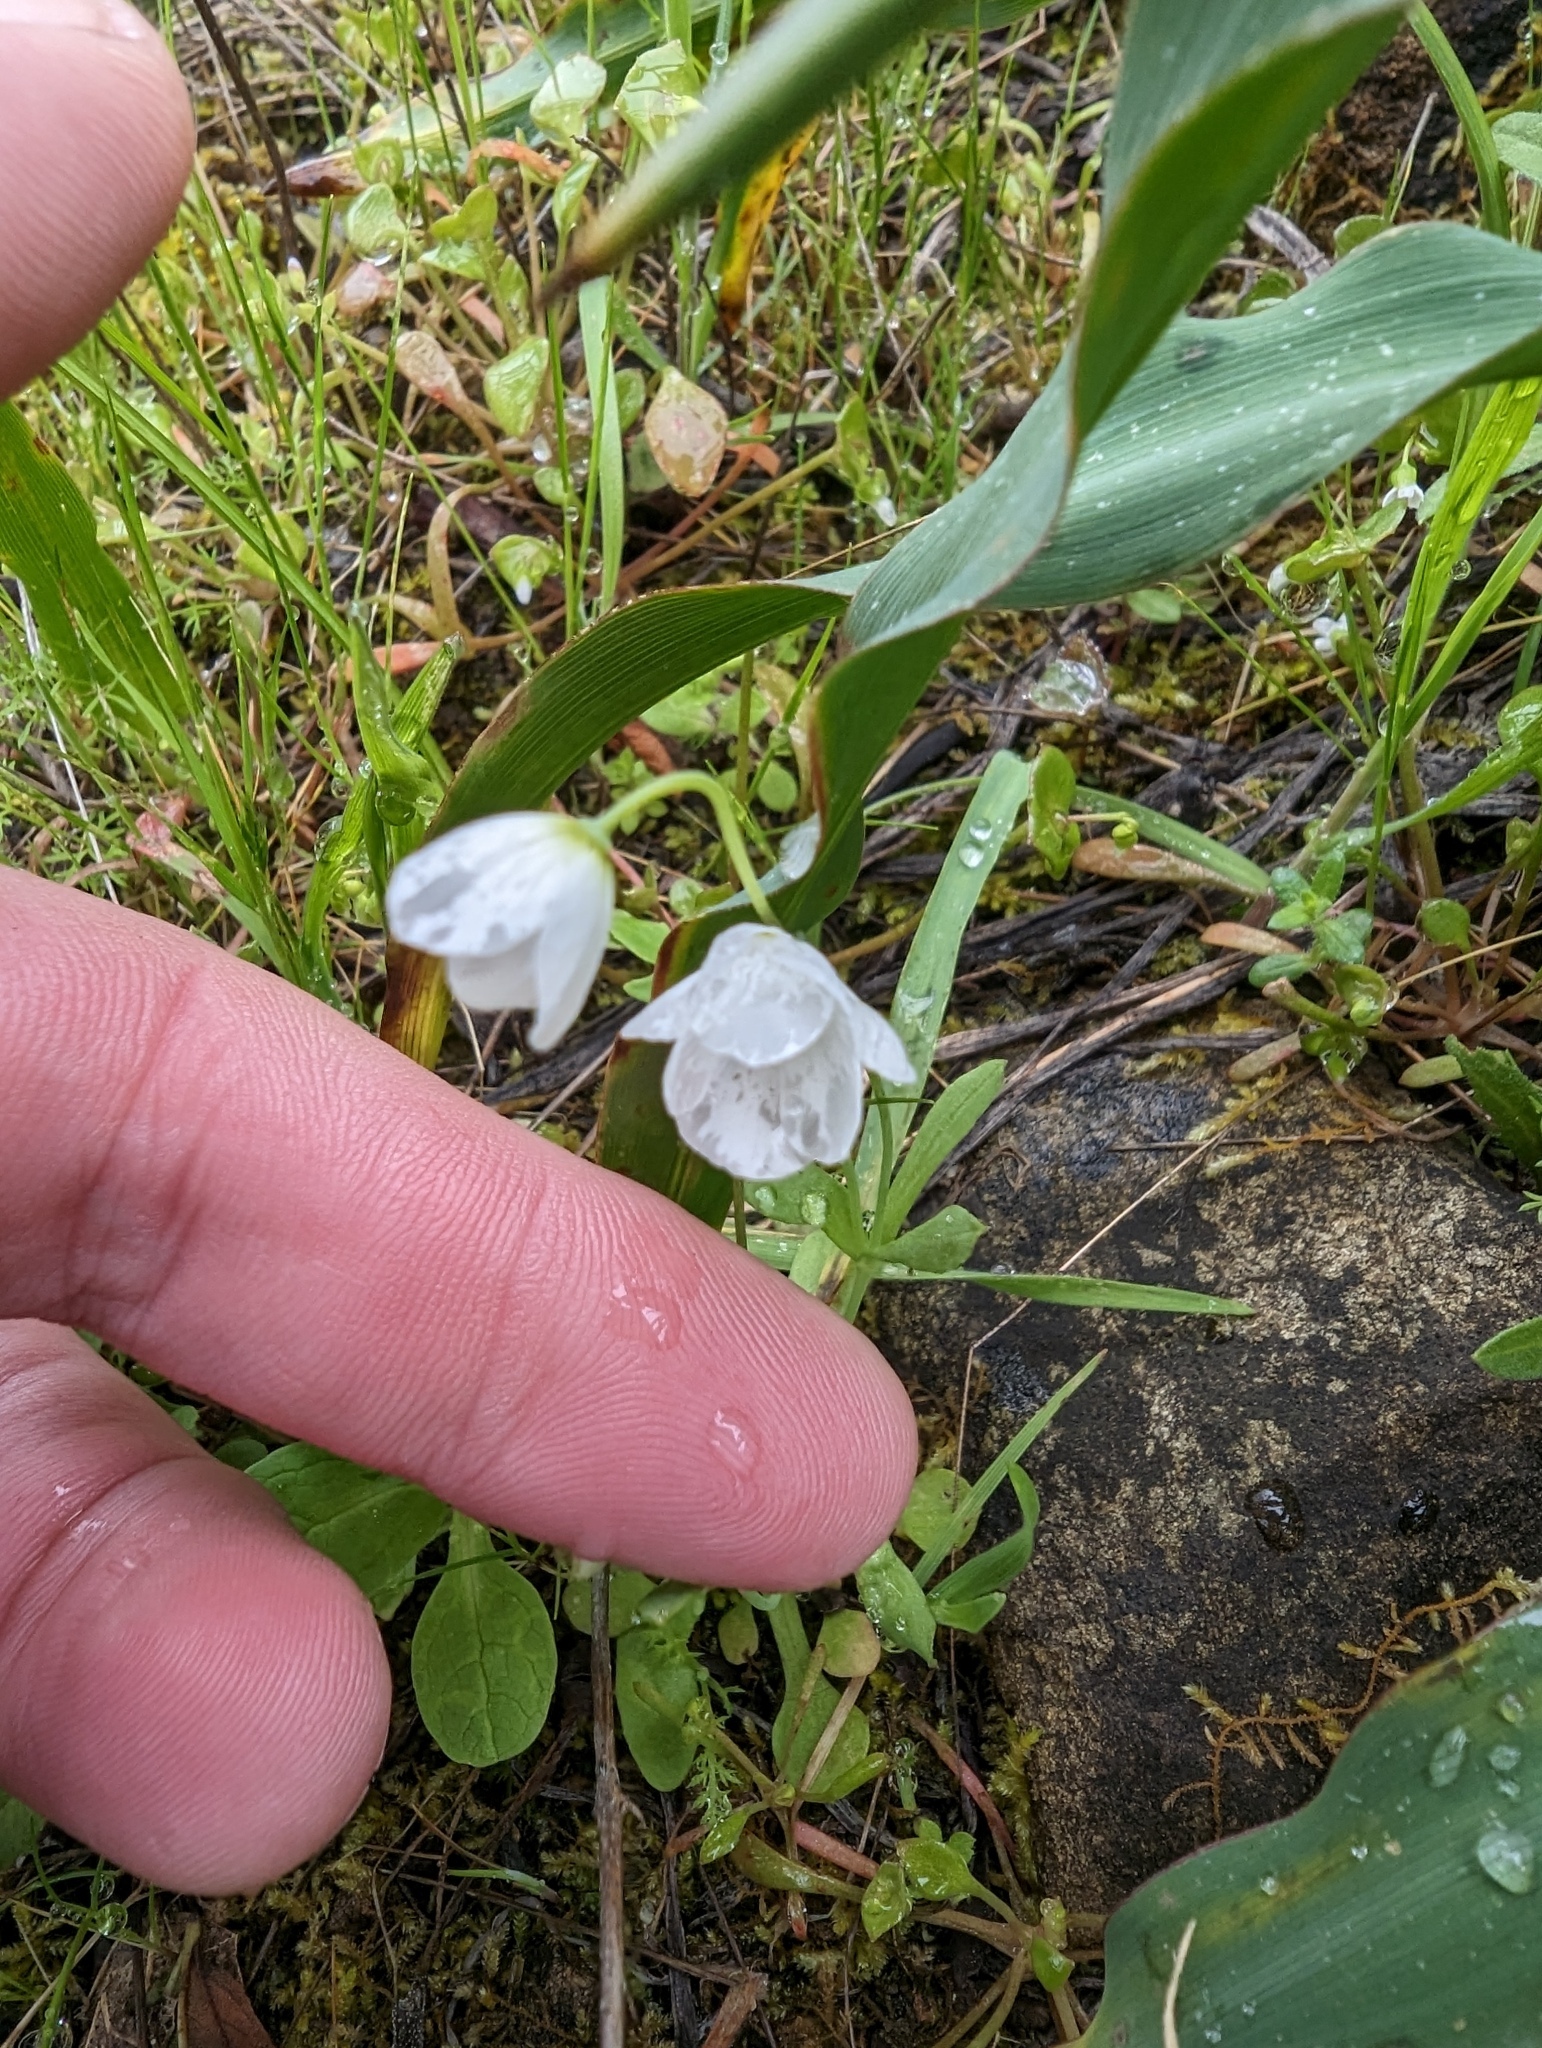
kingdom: Plantae
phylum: Tracheophyta
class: Magnoliopsida
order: Ranunculales
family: Papaveraceae
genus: Meconella
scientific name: Meconella californica
